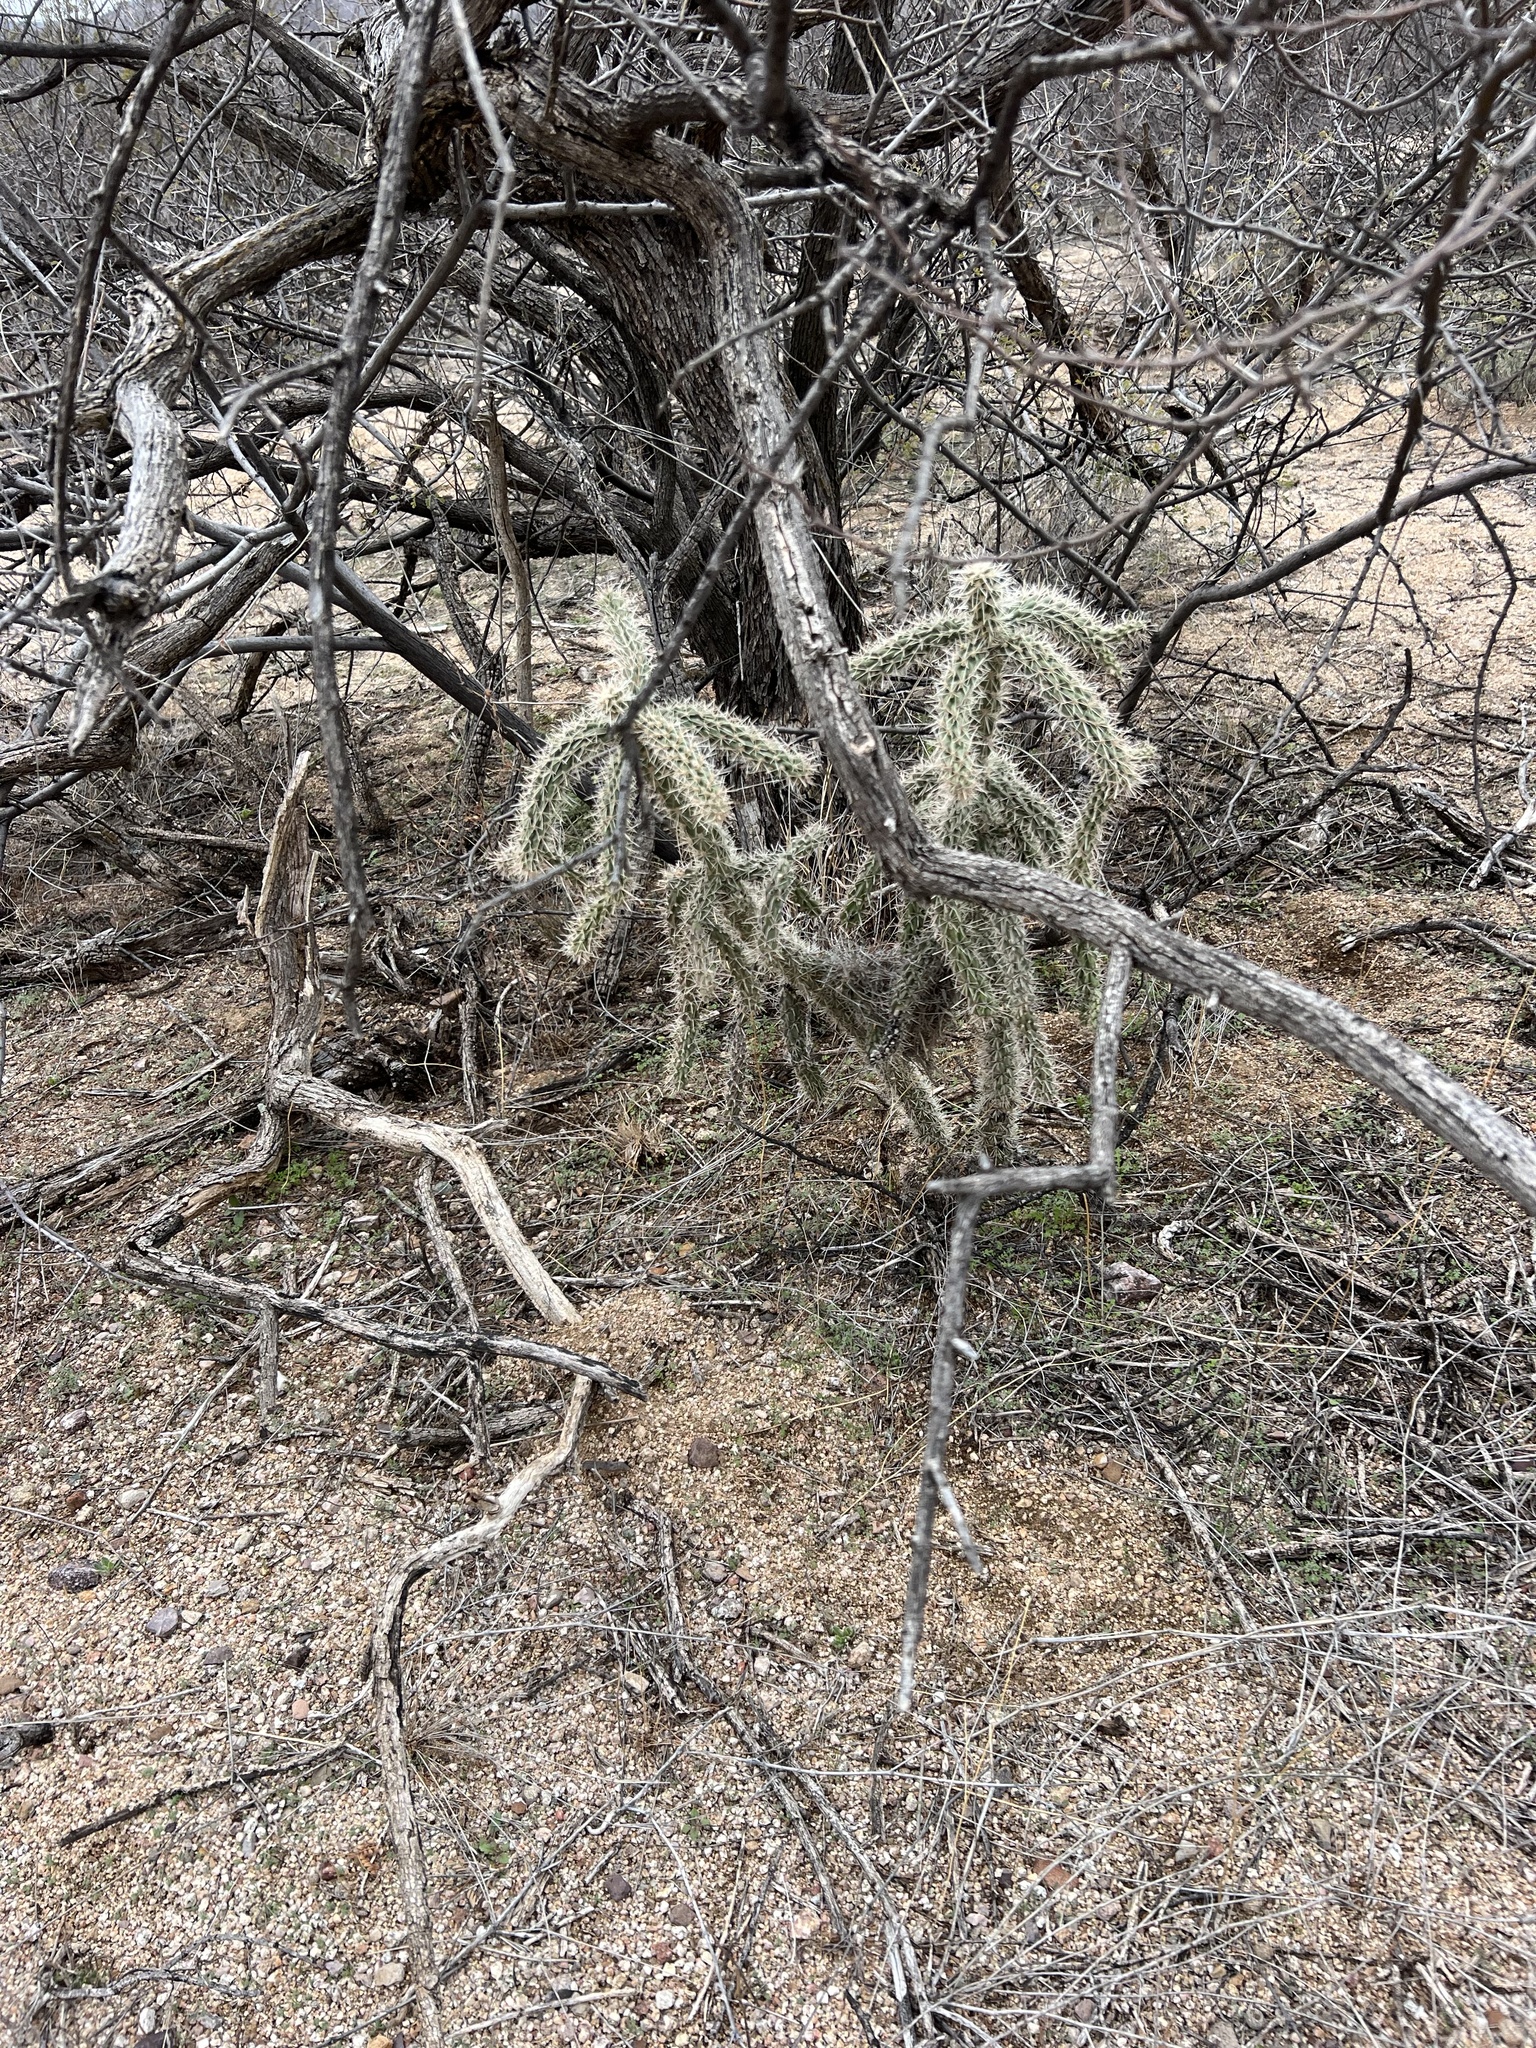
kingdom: Plantae
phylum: Tracheophyta
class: Magnoliopsida
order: Caryophyllales
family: Cactaceae
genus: Cylindropuntia
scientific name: Cylindropuntia imbricata
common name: Candelabrum cactus
